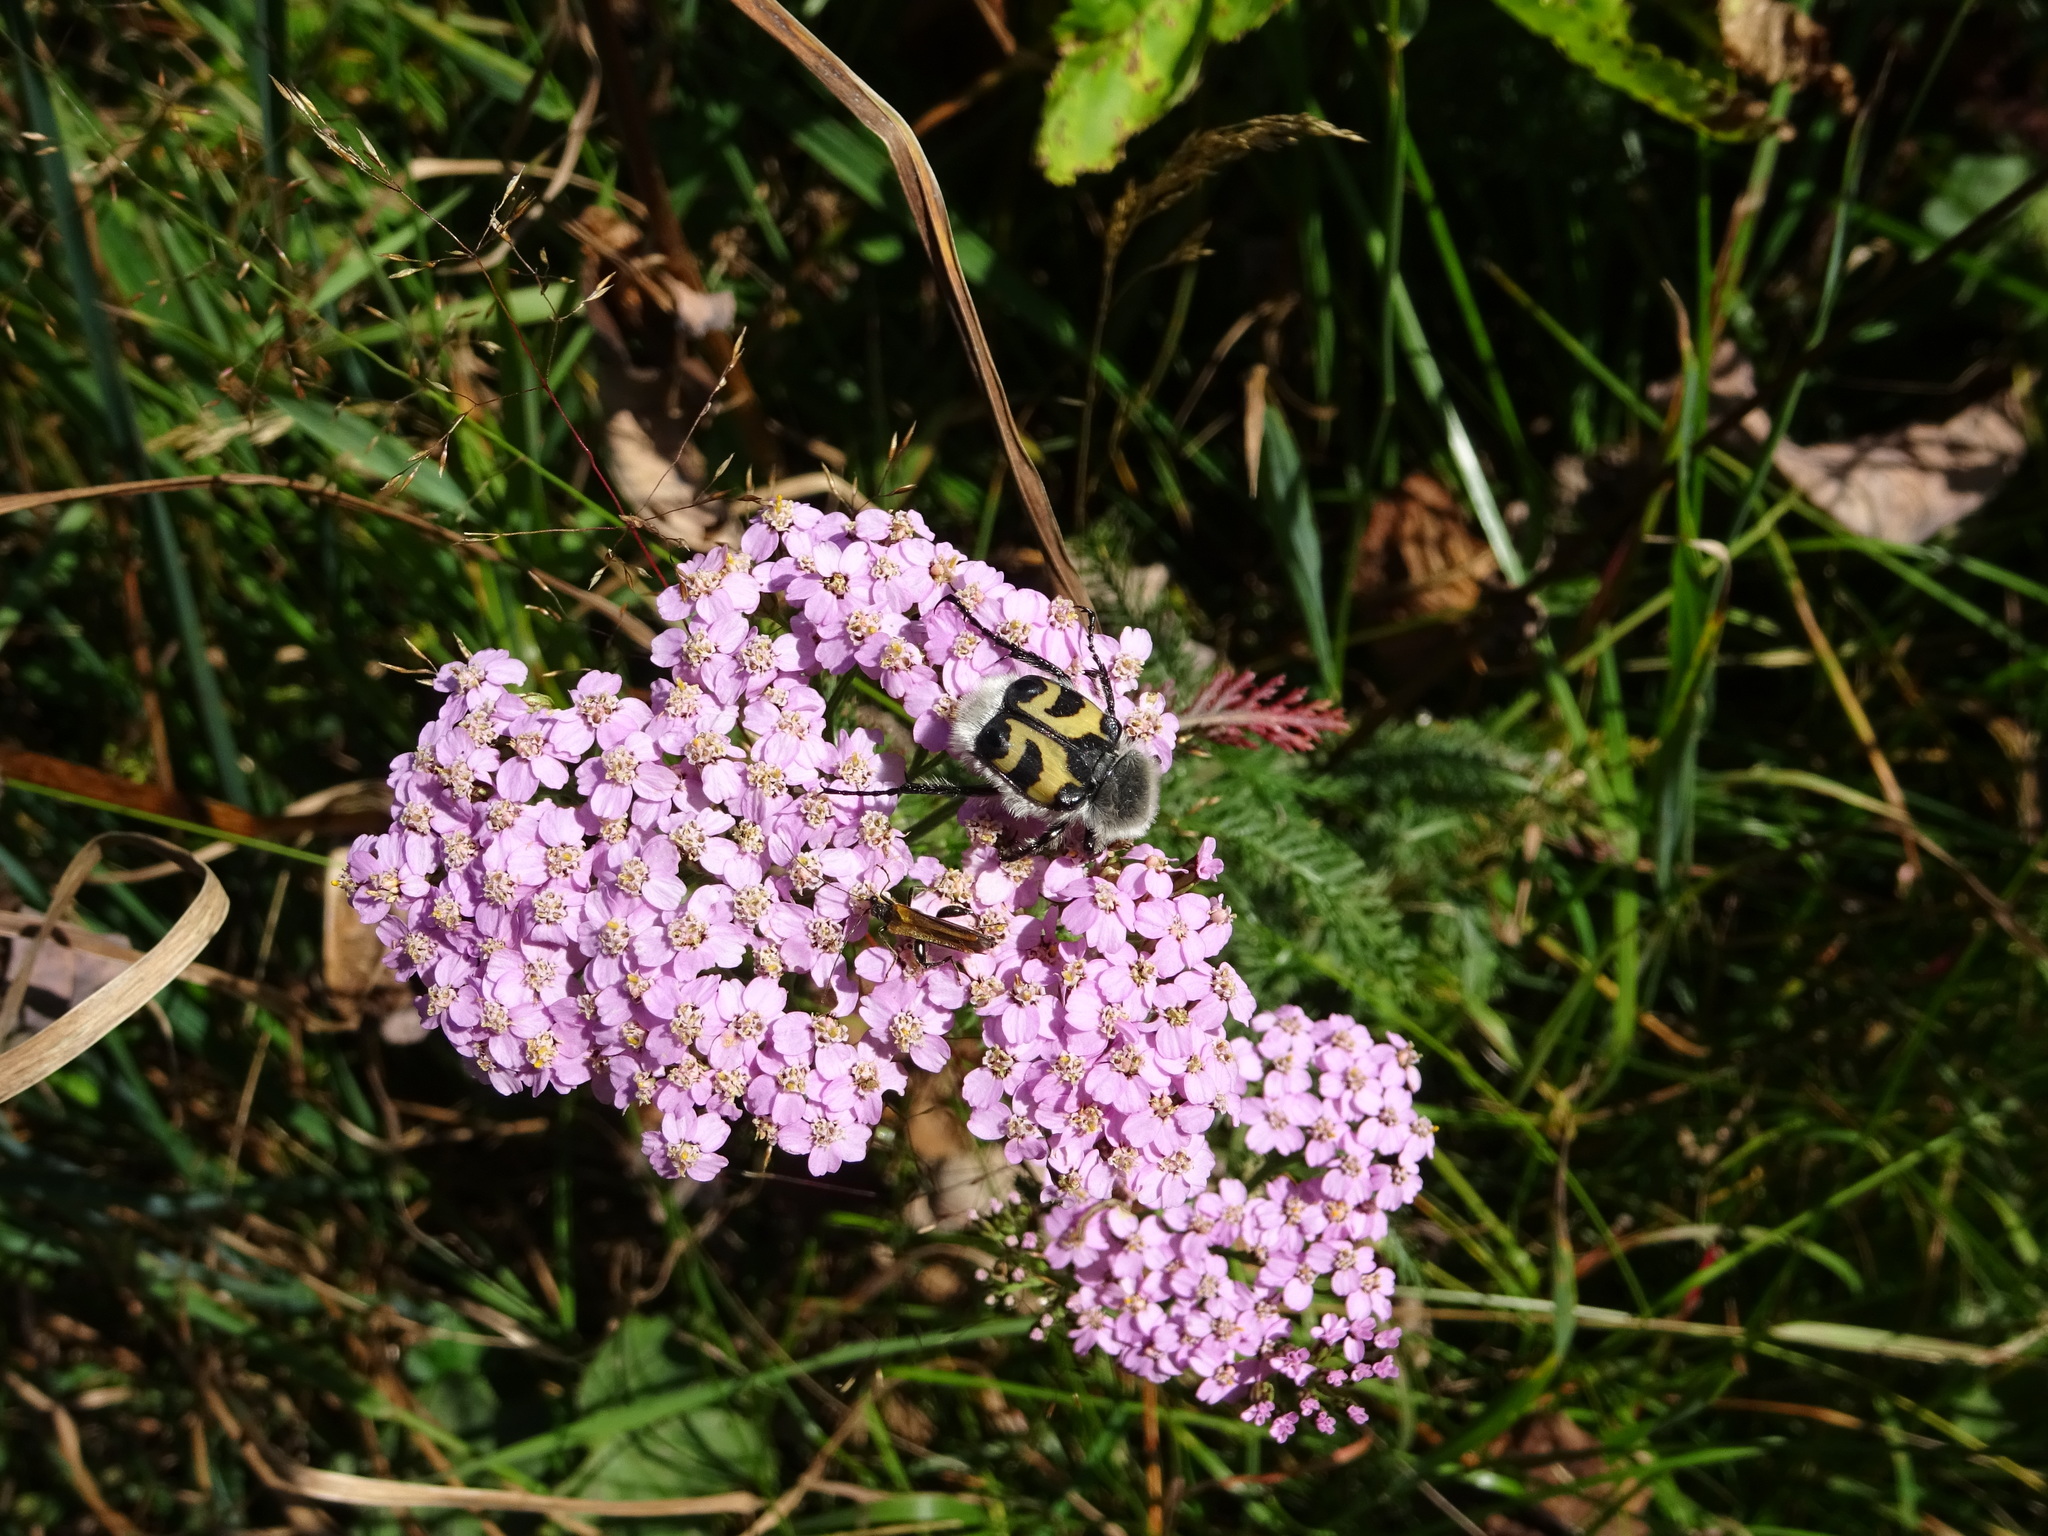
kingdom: Animalia
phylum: Arthropoda
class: Insecta
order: Coleoptera
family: Scarabaeidae
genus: Trichius
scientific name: Trichius fasciatus
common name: Bee beetle
